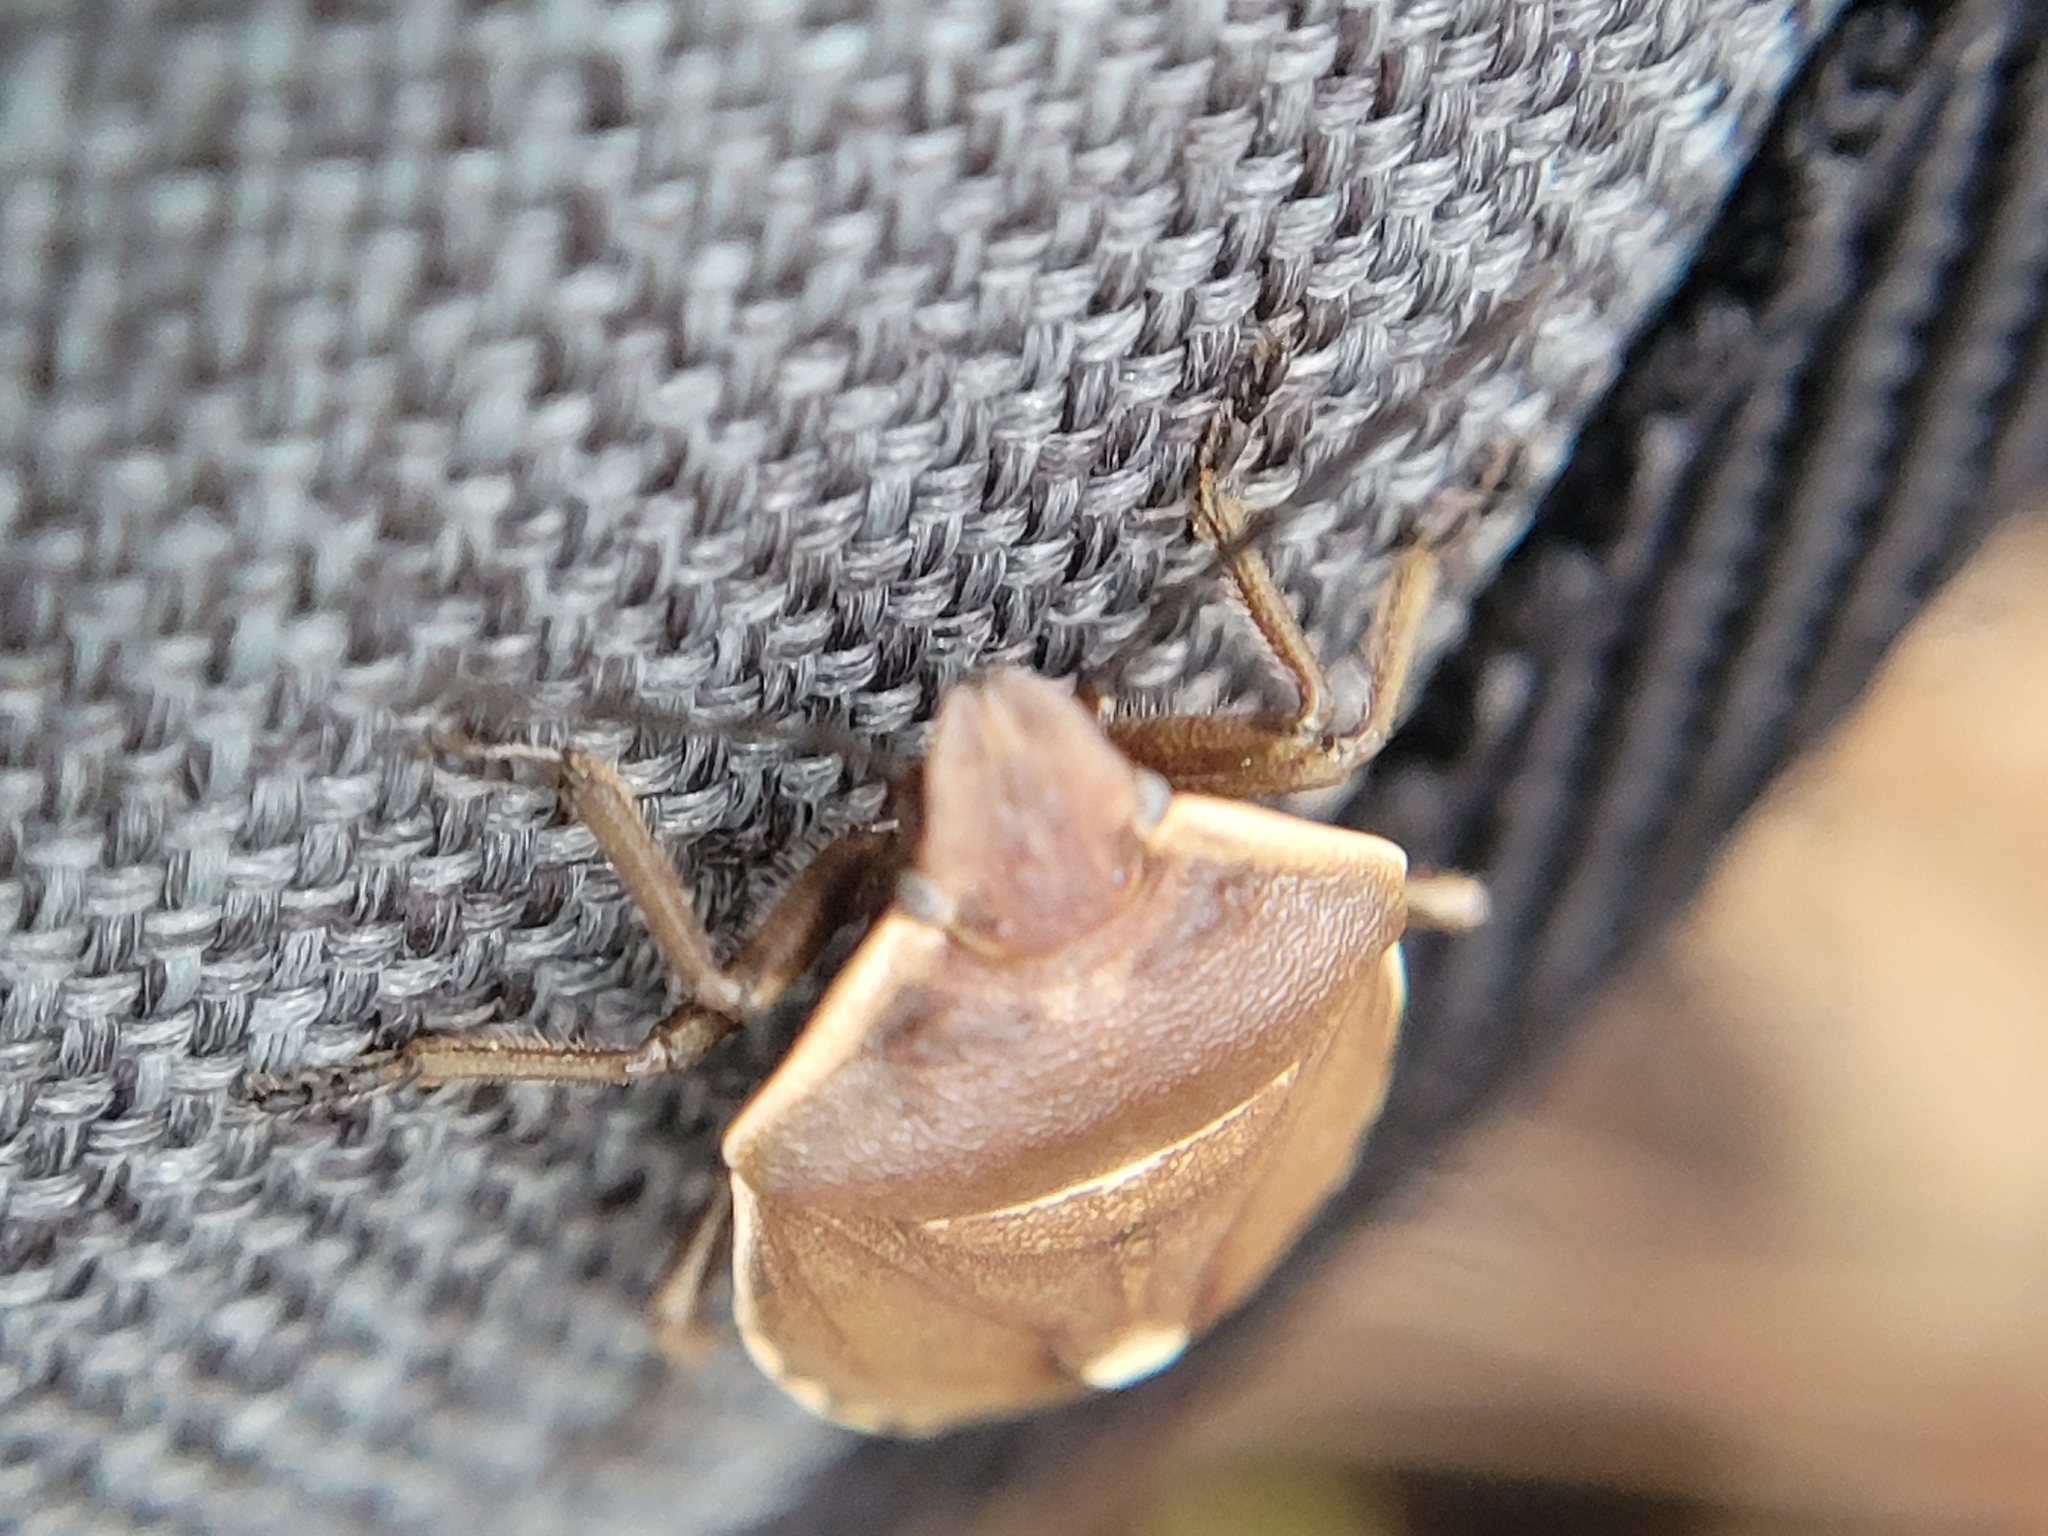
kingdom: Animalia
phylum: Arthropoda
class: Insecta
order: Hemiptera
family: Pentatomidae
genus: Chlorochroa
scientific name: Chlorochroa pinicola
